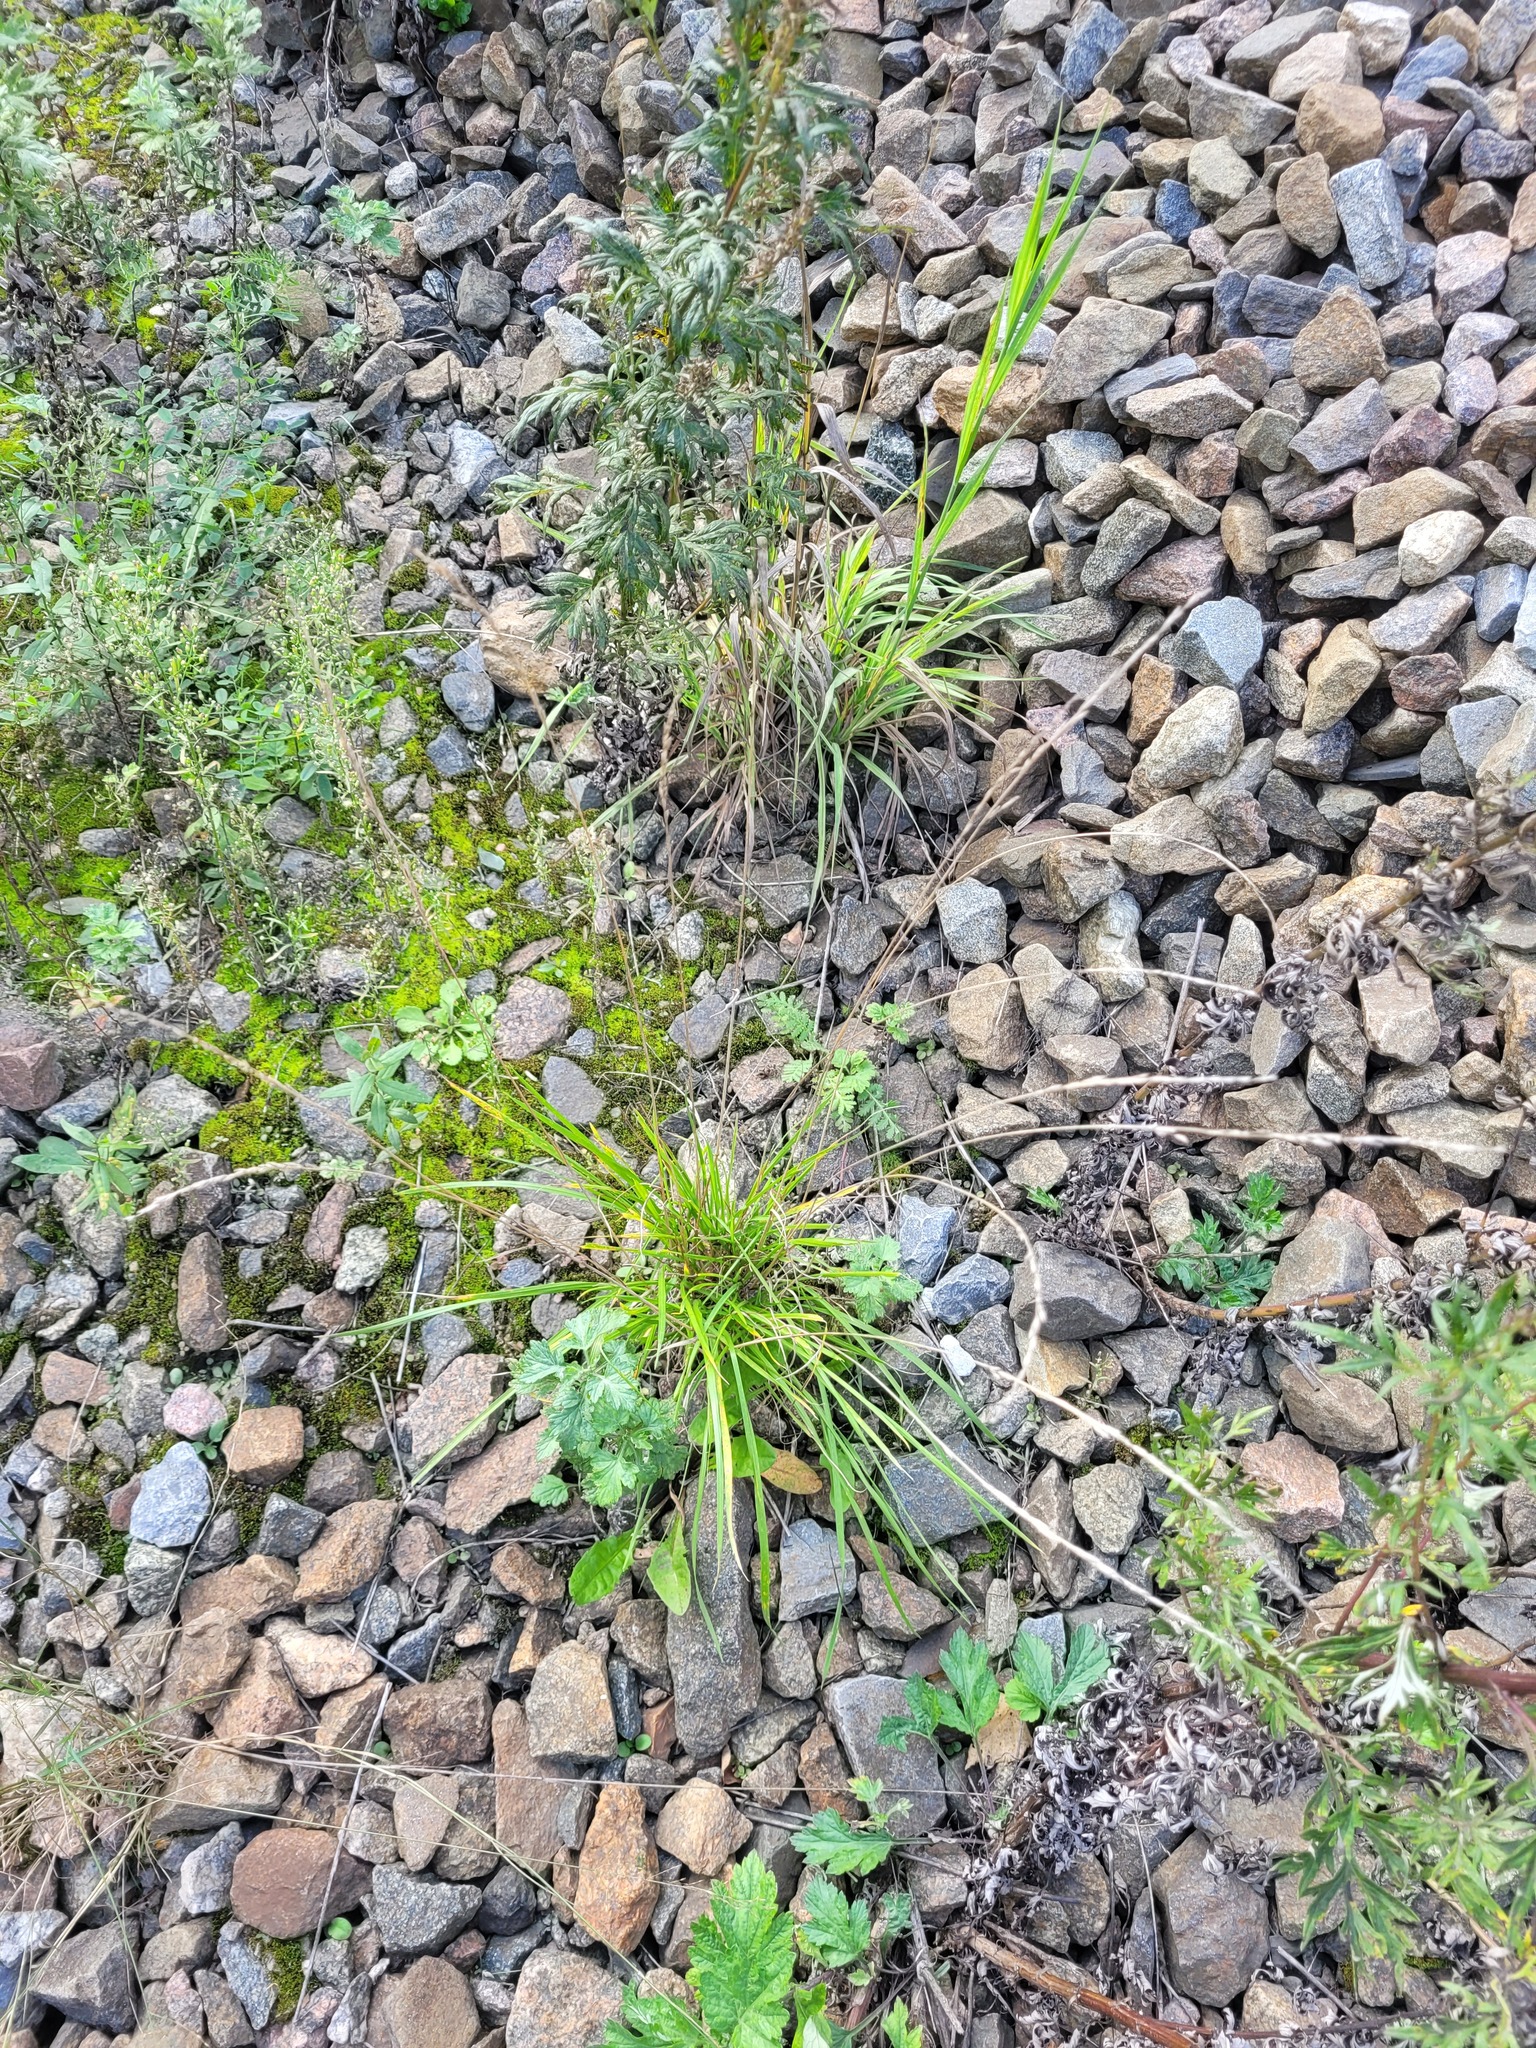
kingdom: Plantae
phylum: Tracheophyta
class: Liliopsida
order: Poales
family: Poaceae
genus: Lolium
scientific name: Lolium pratense
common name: Dover grass
